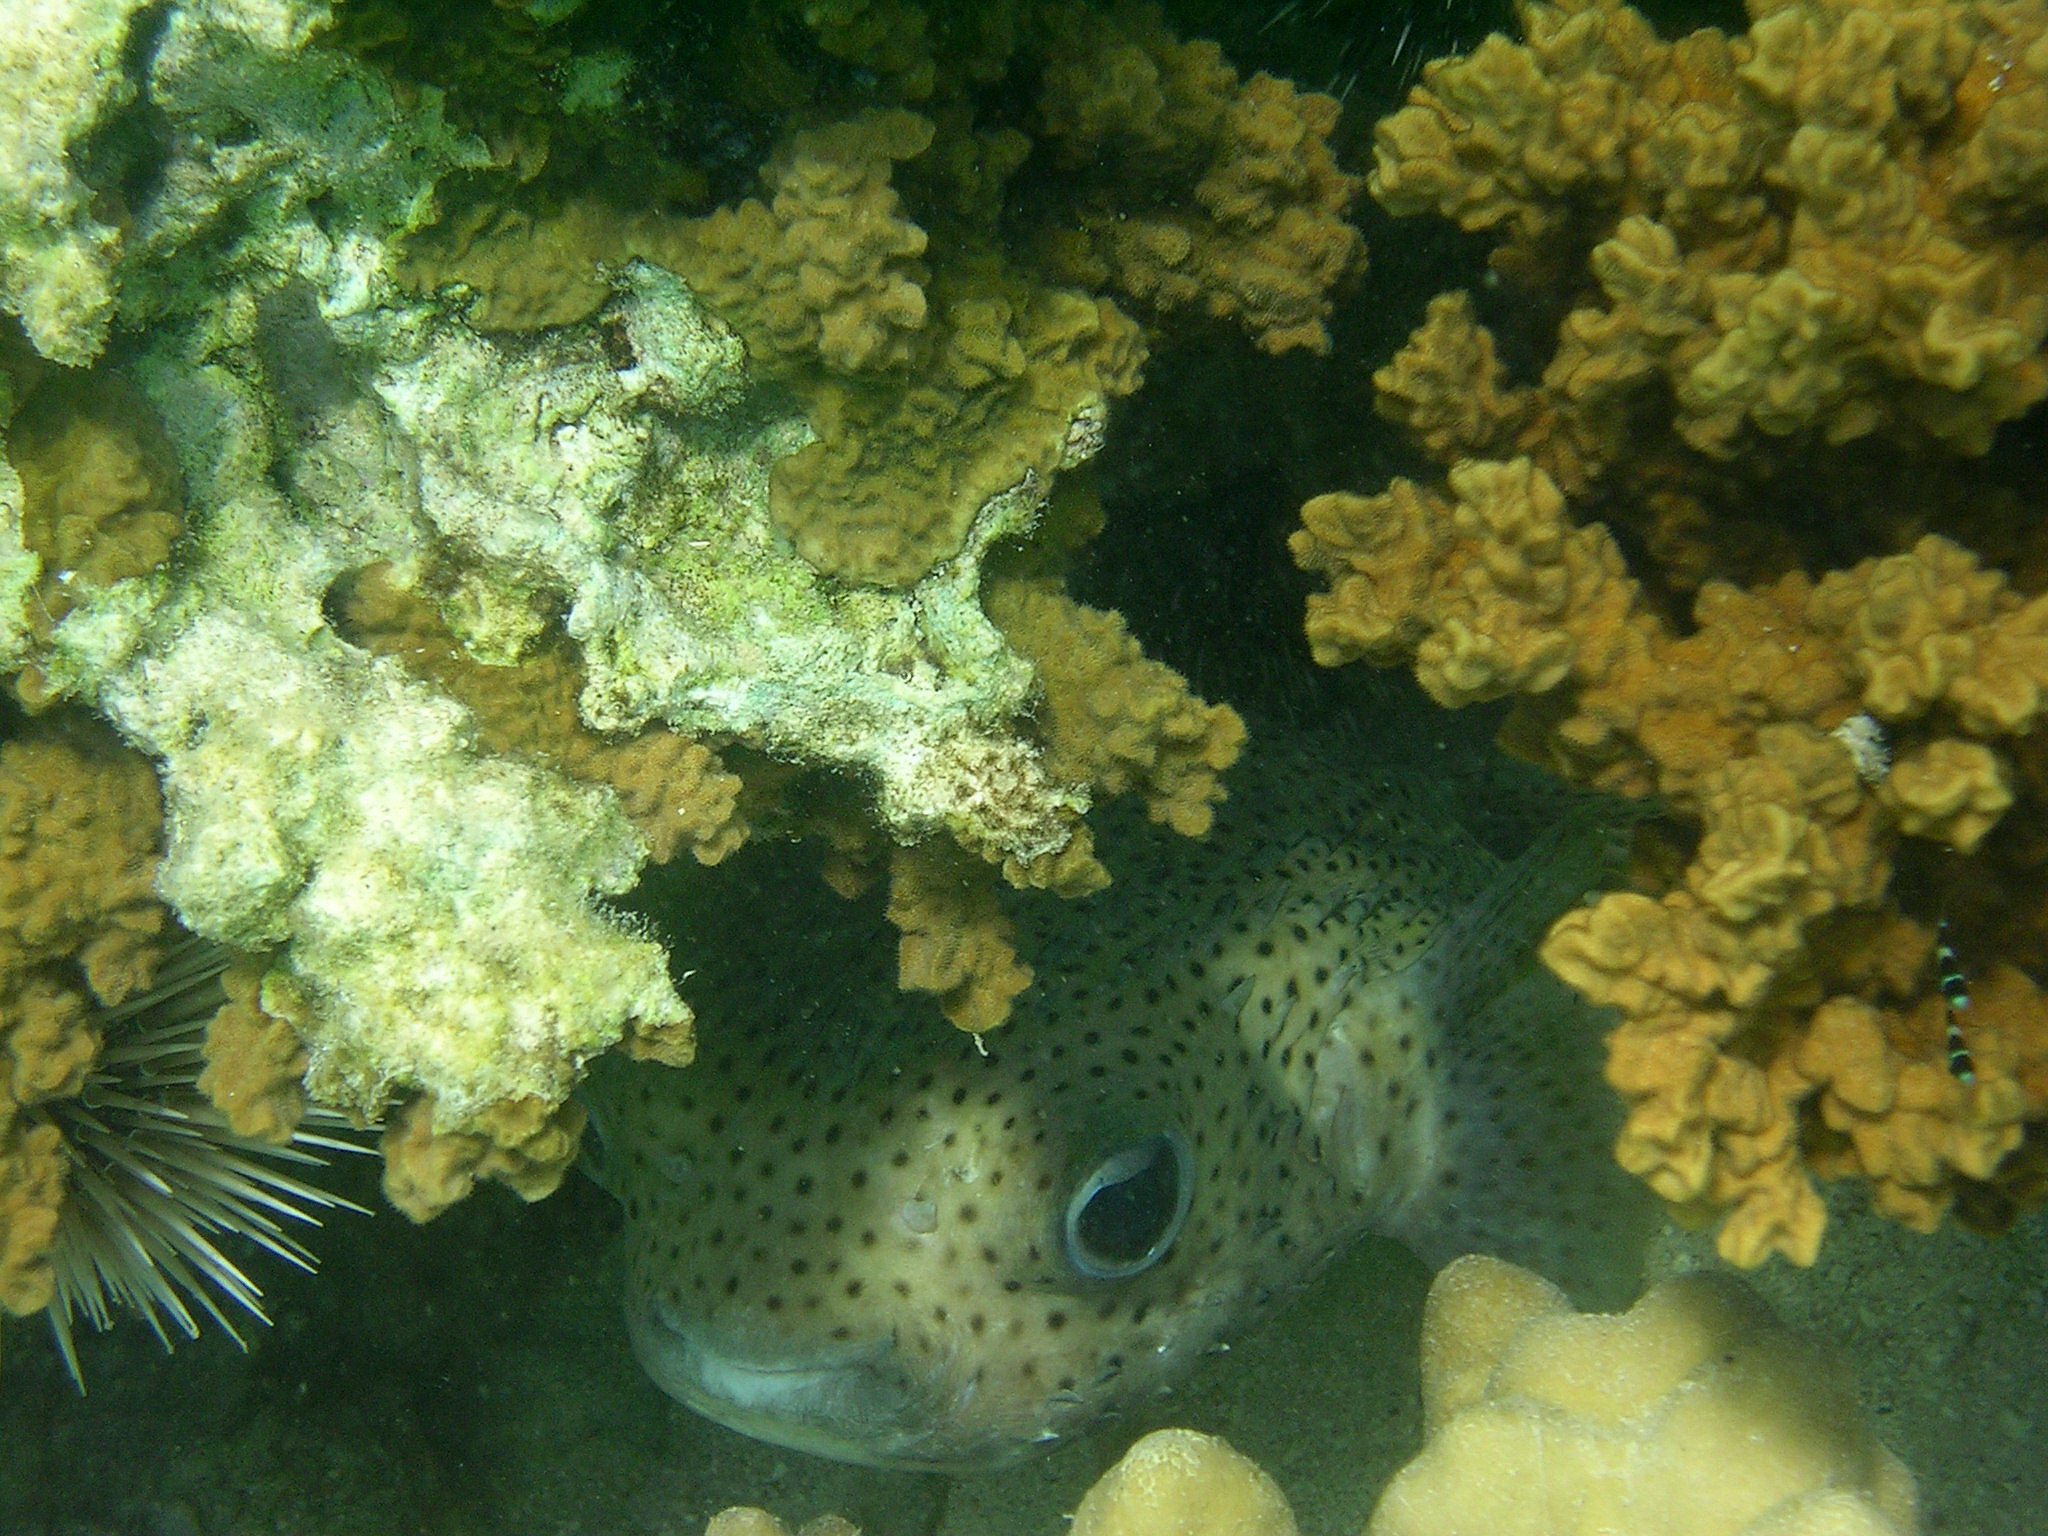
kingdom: Animalia
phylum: Chordata
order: Tetraodontiformes
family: Diodontidae
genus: Diodon
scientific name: Diodon hystrix
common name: Giant porcupinefish
